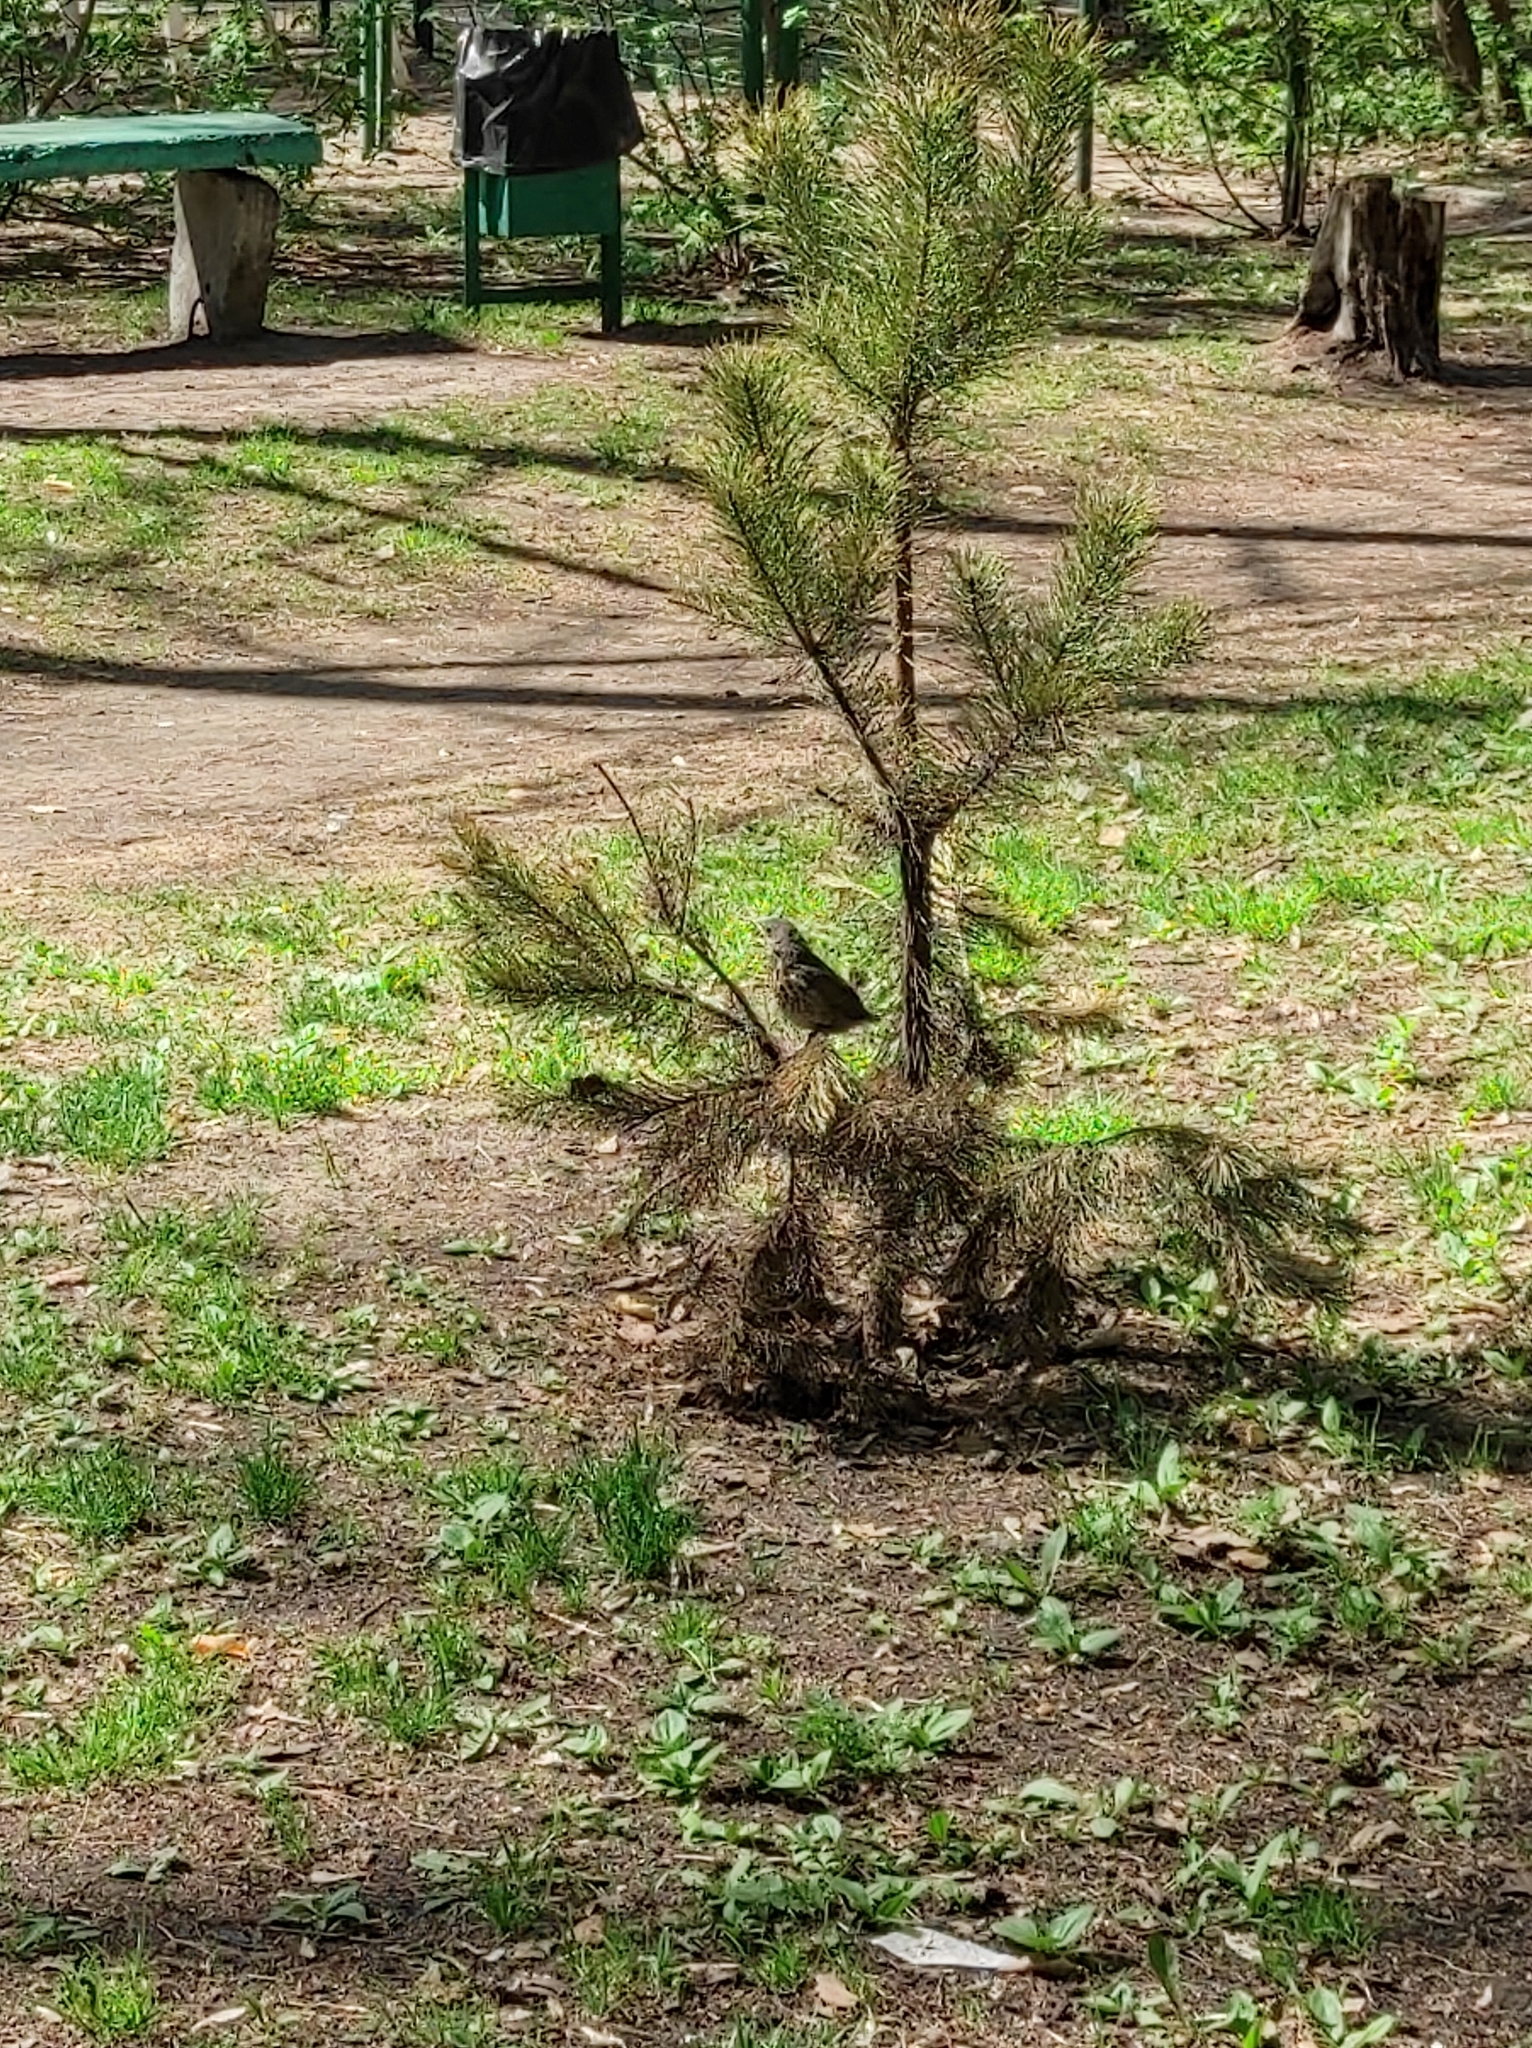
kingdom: Plantae
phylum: Tracheophyta
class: Pinopsida
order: Pinales
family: Pinaceae
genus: Pinus
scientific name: Pinus sylvestris
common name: Scots pine
